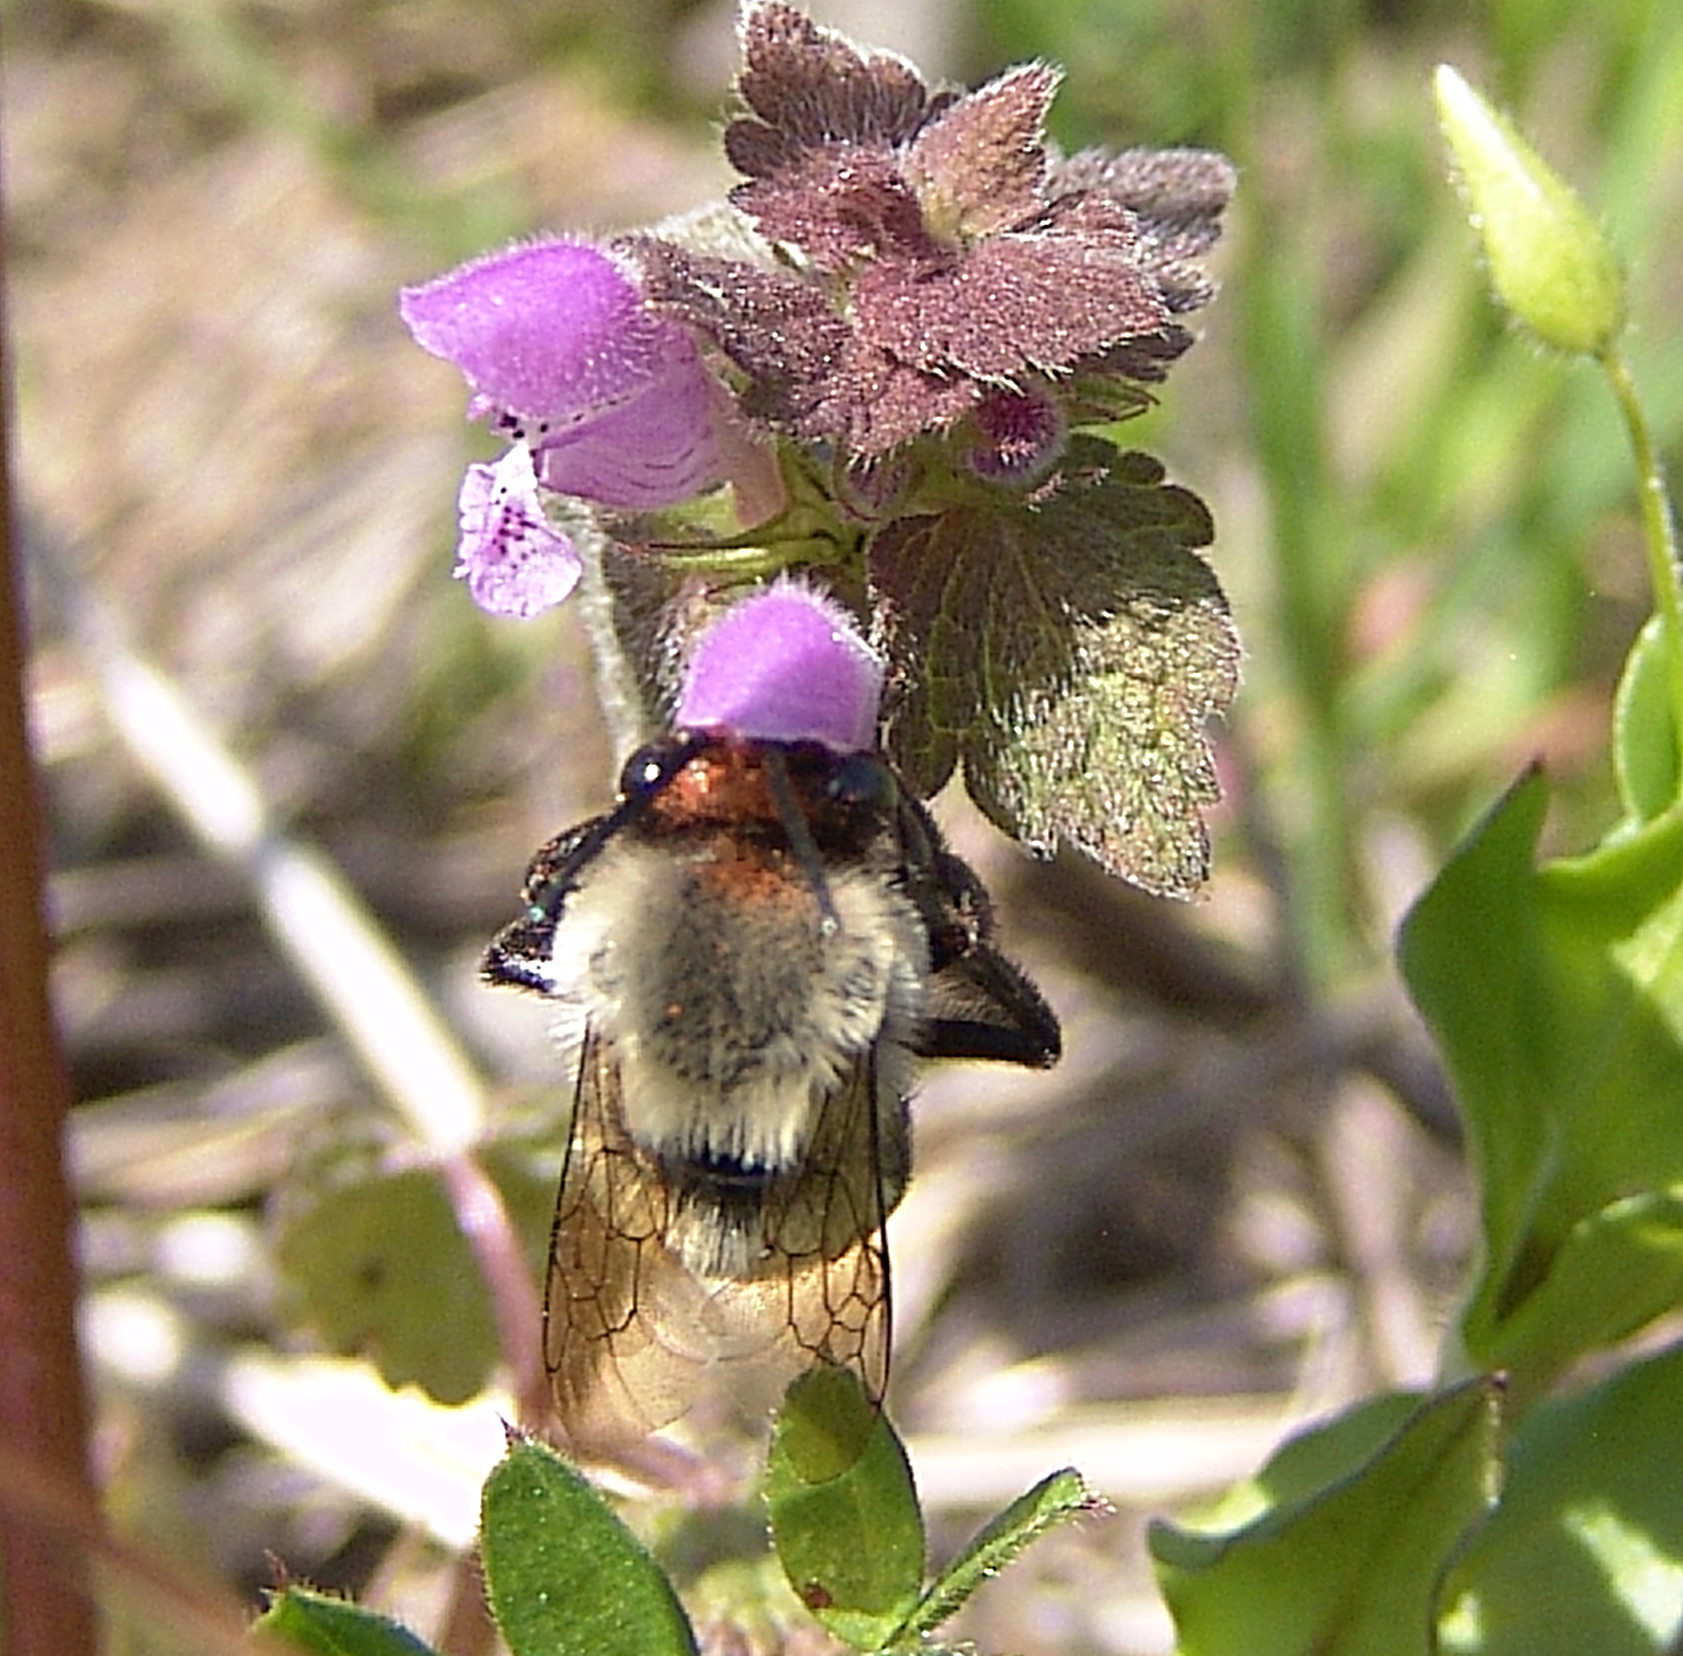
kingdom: Animalia
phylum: Arthropoda
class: Insecta
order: Hymenoptera
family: Apidae
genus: Habropoda
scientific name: Habropoda laboriosa
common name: Southeastern blueberry bee
